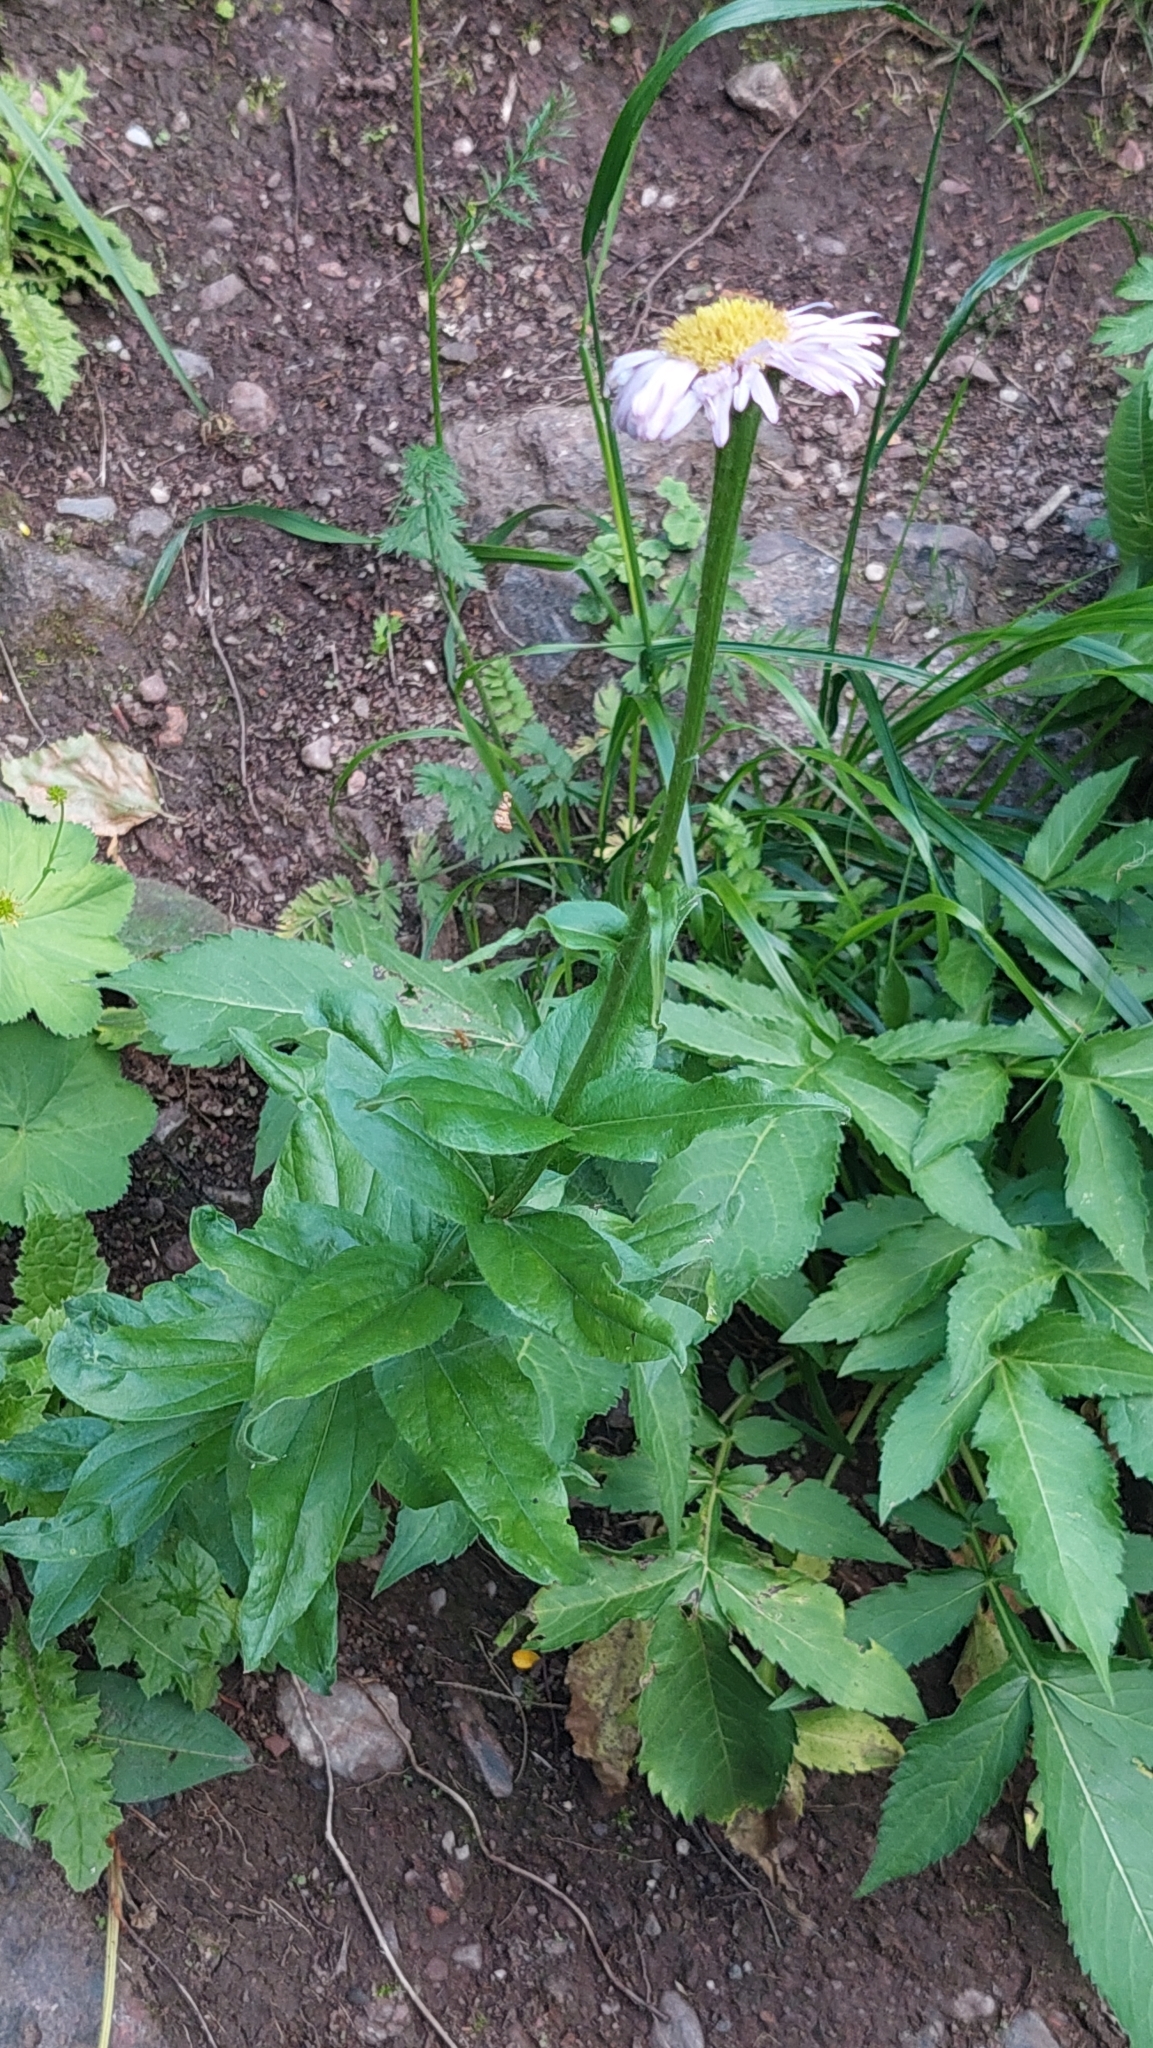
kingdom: Plantae
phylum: Tracheophyta
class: Magnoliopsida
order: Asterales
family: Asteraceae
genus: Kemulariella
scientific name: Kemulariella caucasica
